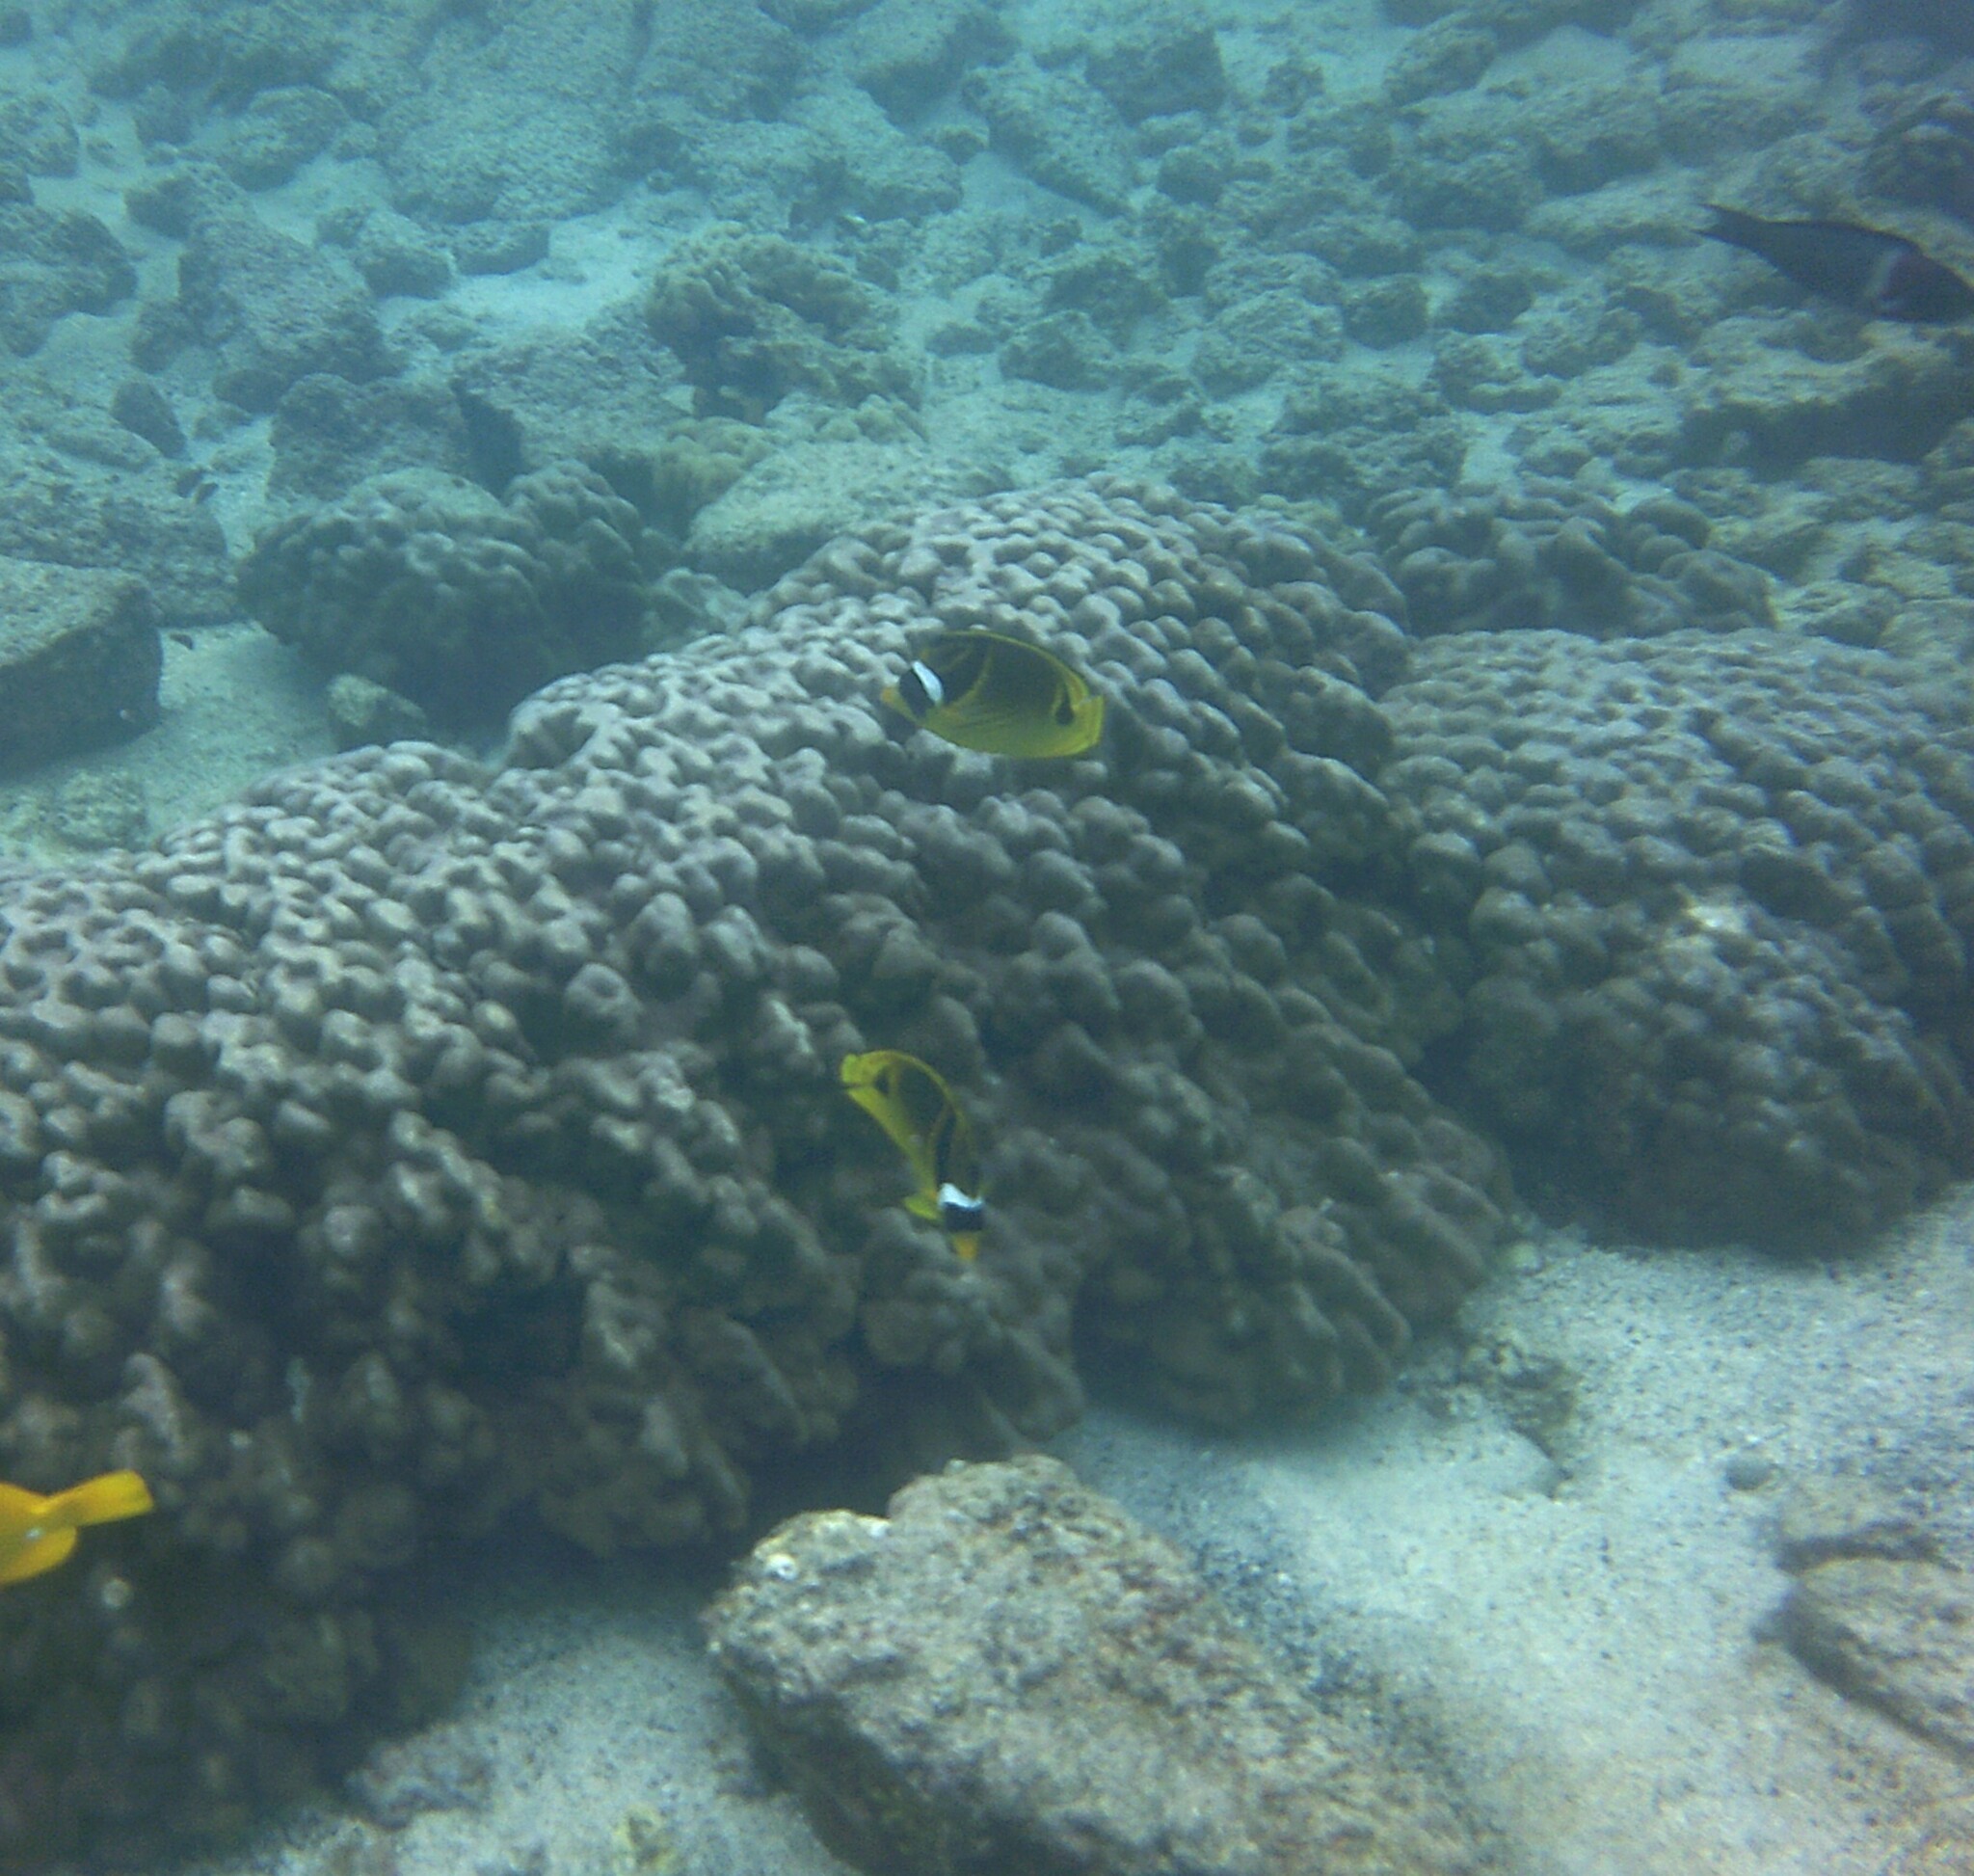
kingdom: Animalia
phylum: Chordata
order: Perciformes
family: Chaetodontidae
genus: Chaetodon
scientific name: Chaetodon lunula
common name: Raccoon butterflyfish
